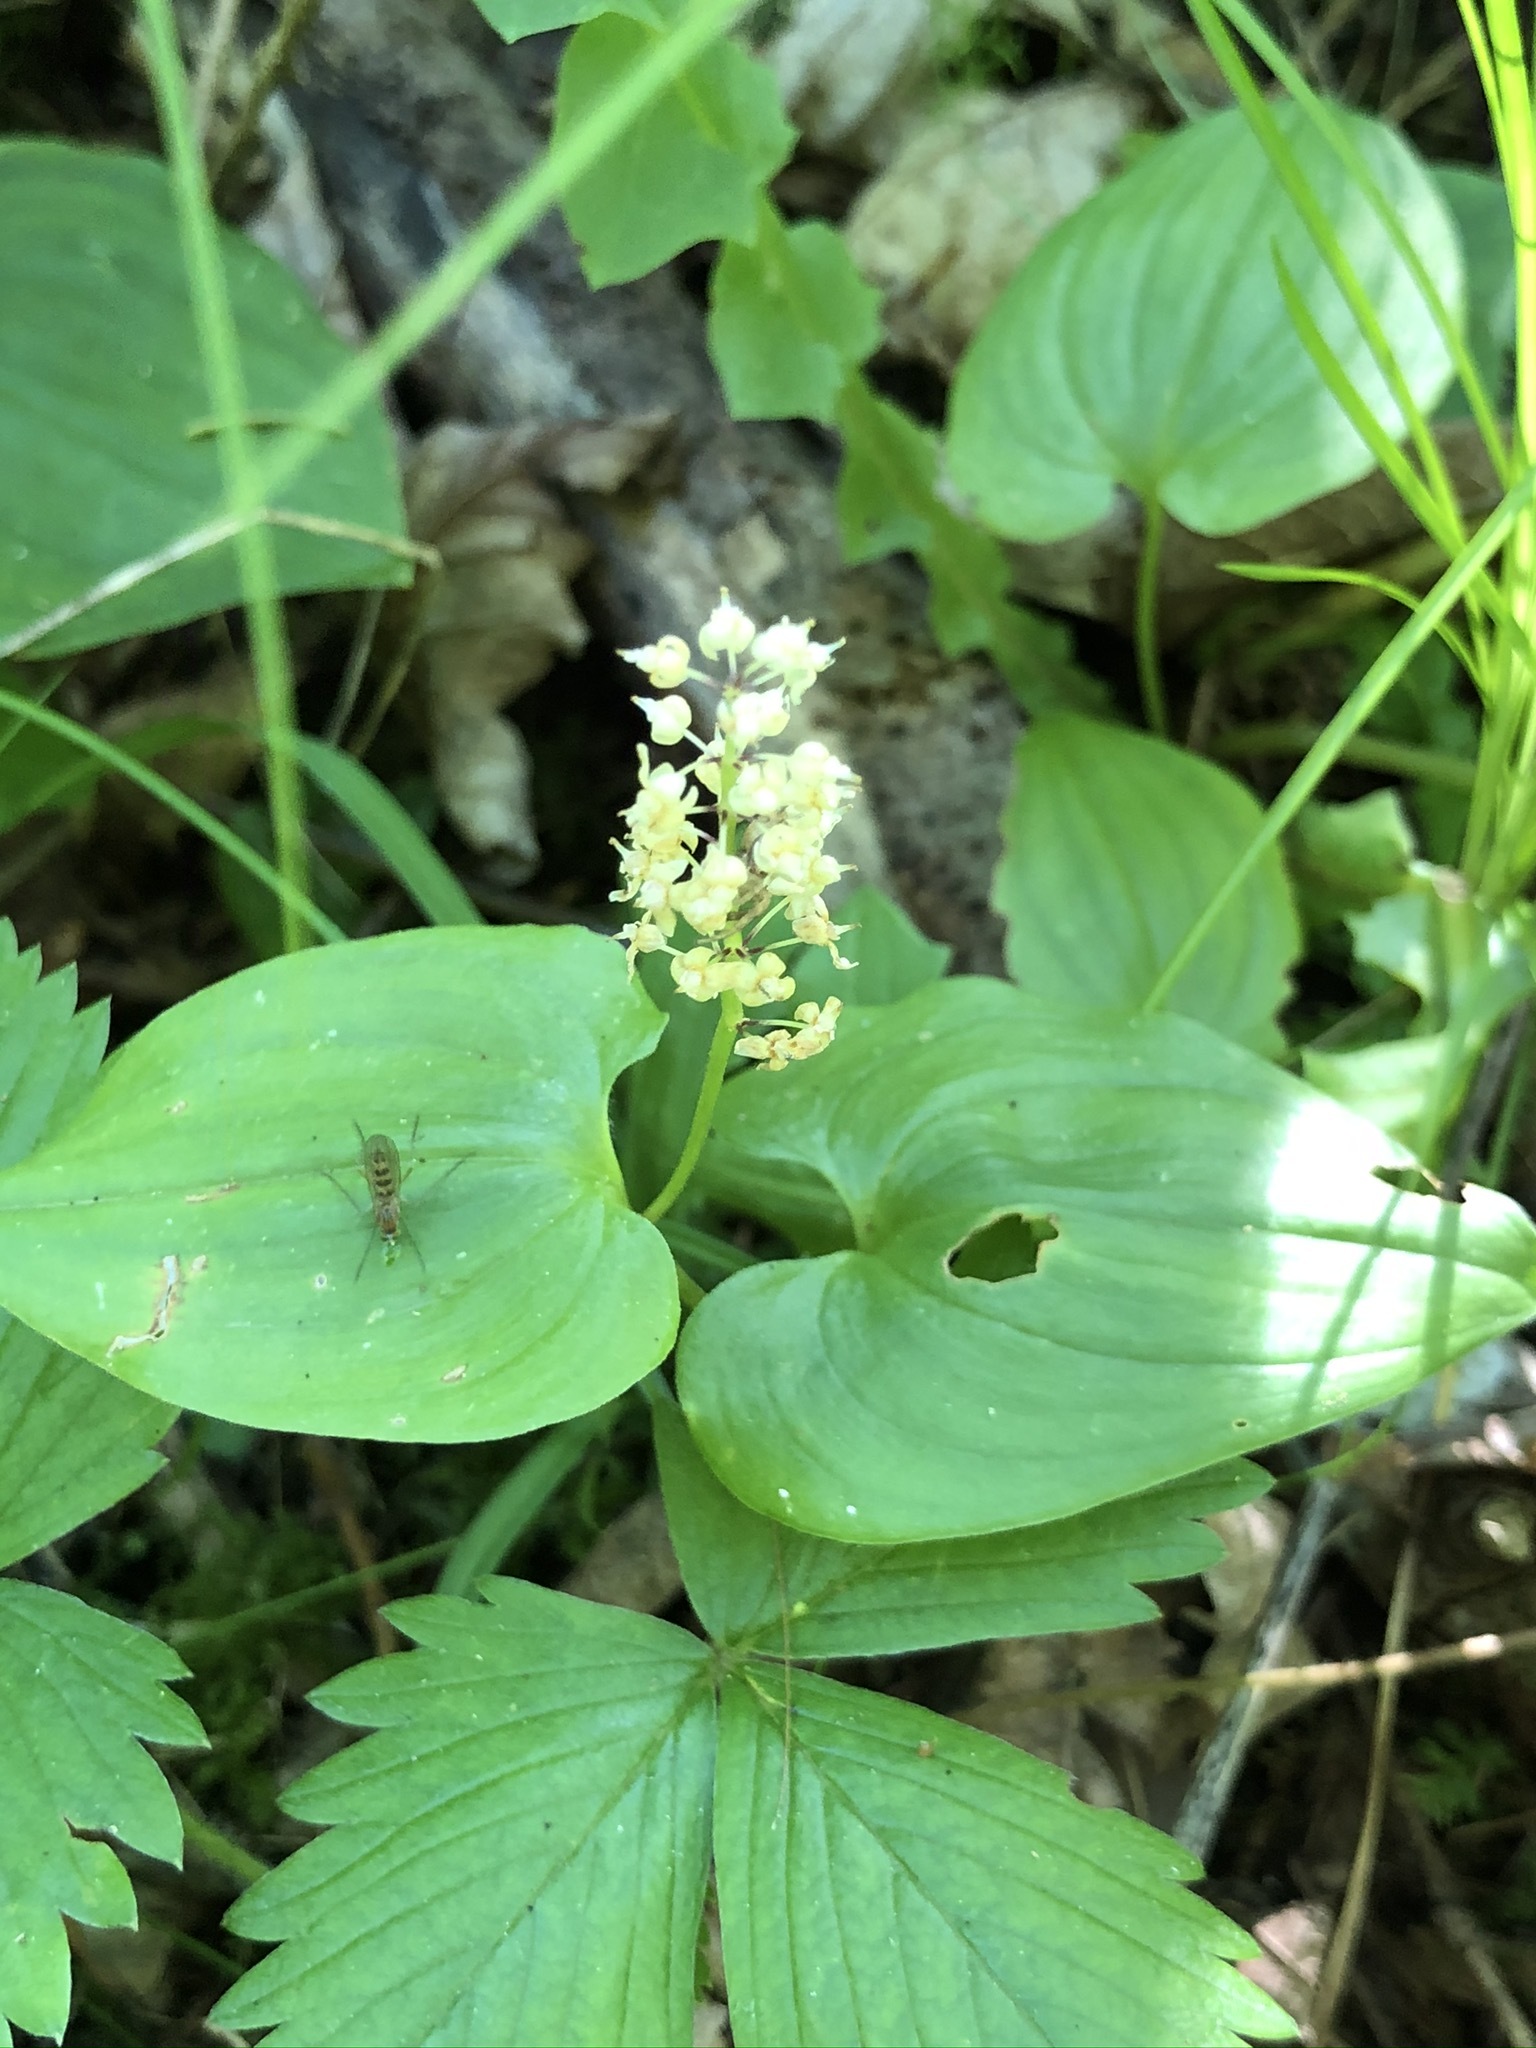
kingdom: Plantae
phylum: Tracheophyta
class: Liliopsida
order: Asparagales
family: Asparagaceae
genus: Maianthemum
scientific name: Maianthemum bifolium
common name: May lily
